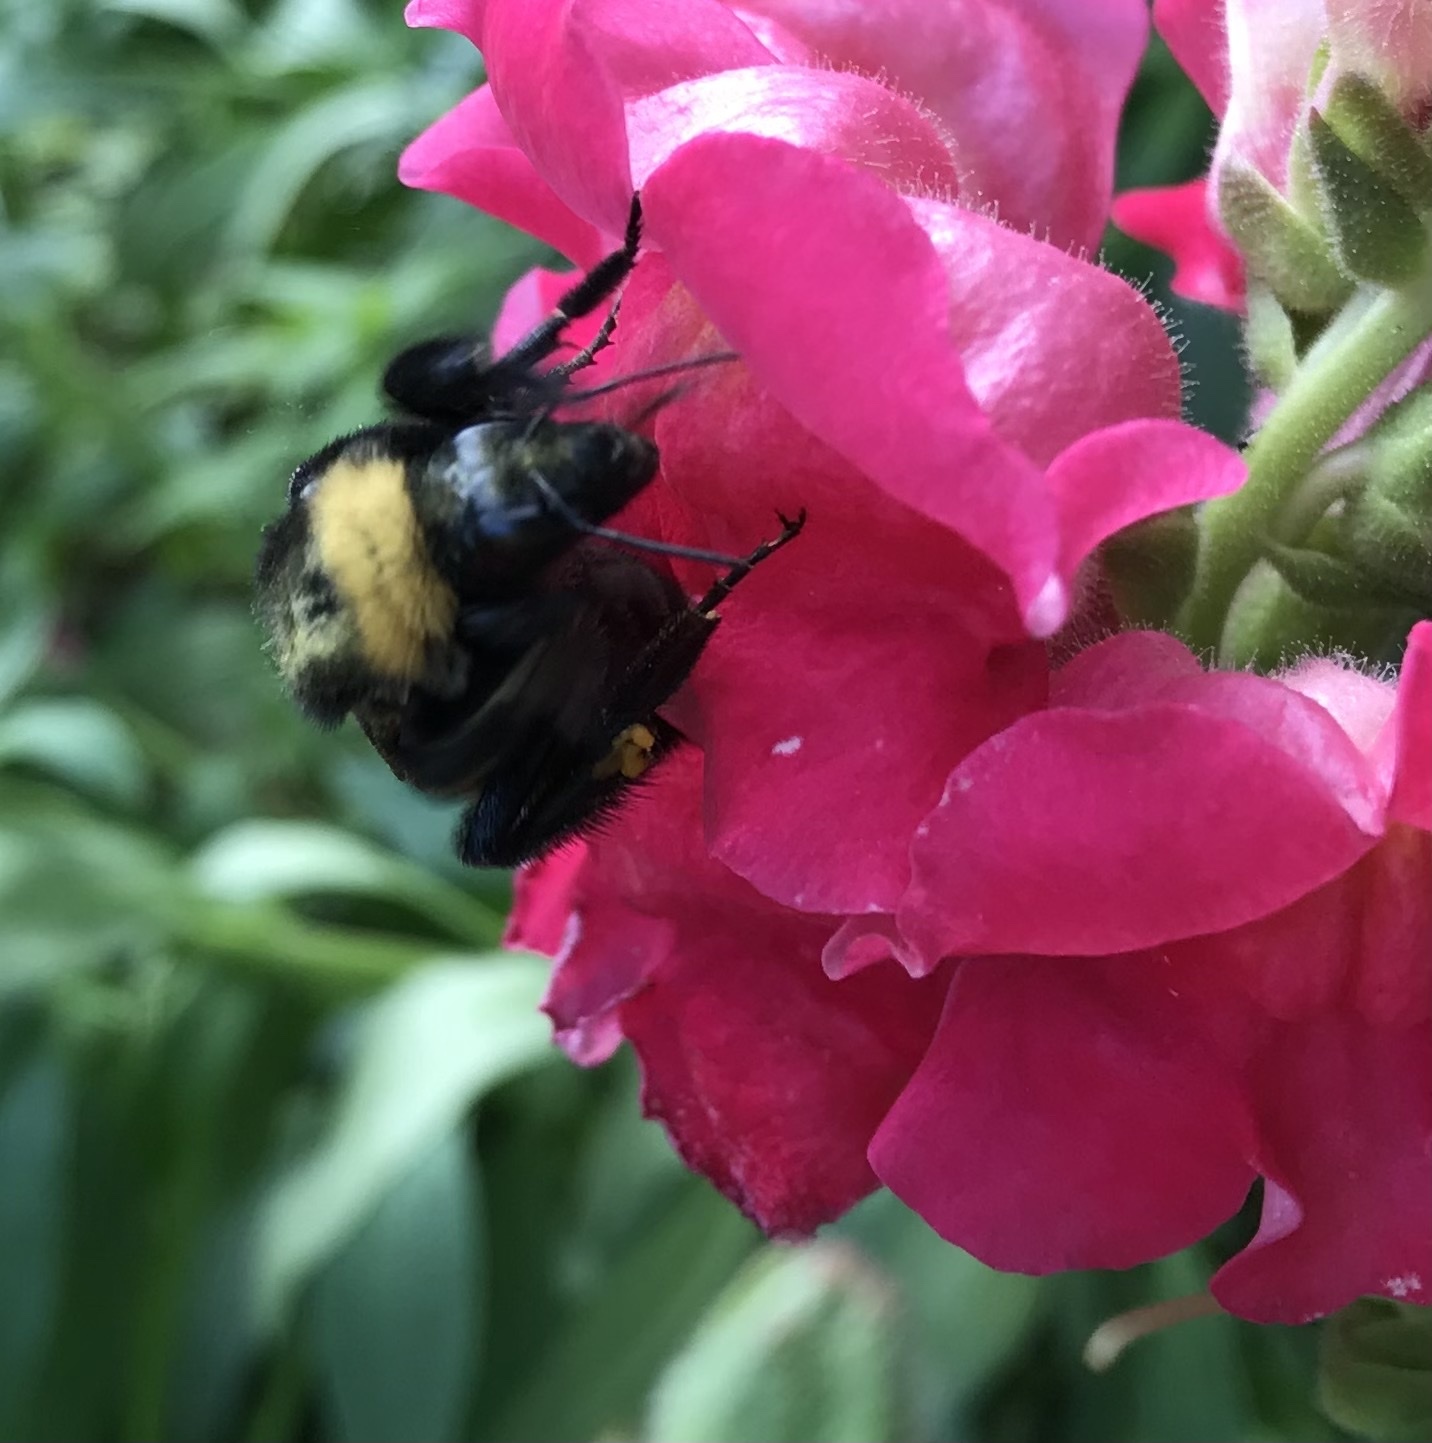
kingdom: Animalia
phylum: Arthropoda
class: Insecta
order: Hymenoptera
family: Apidae
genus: Bombus
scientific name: Bombus pensylvanicus
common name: Bumble bee
